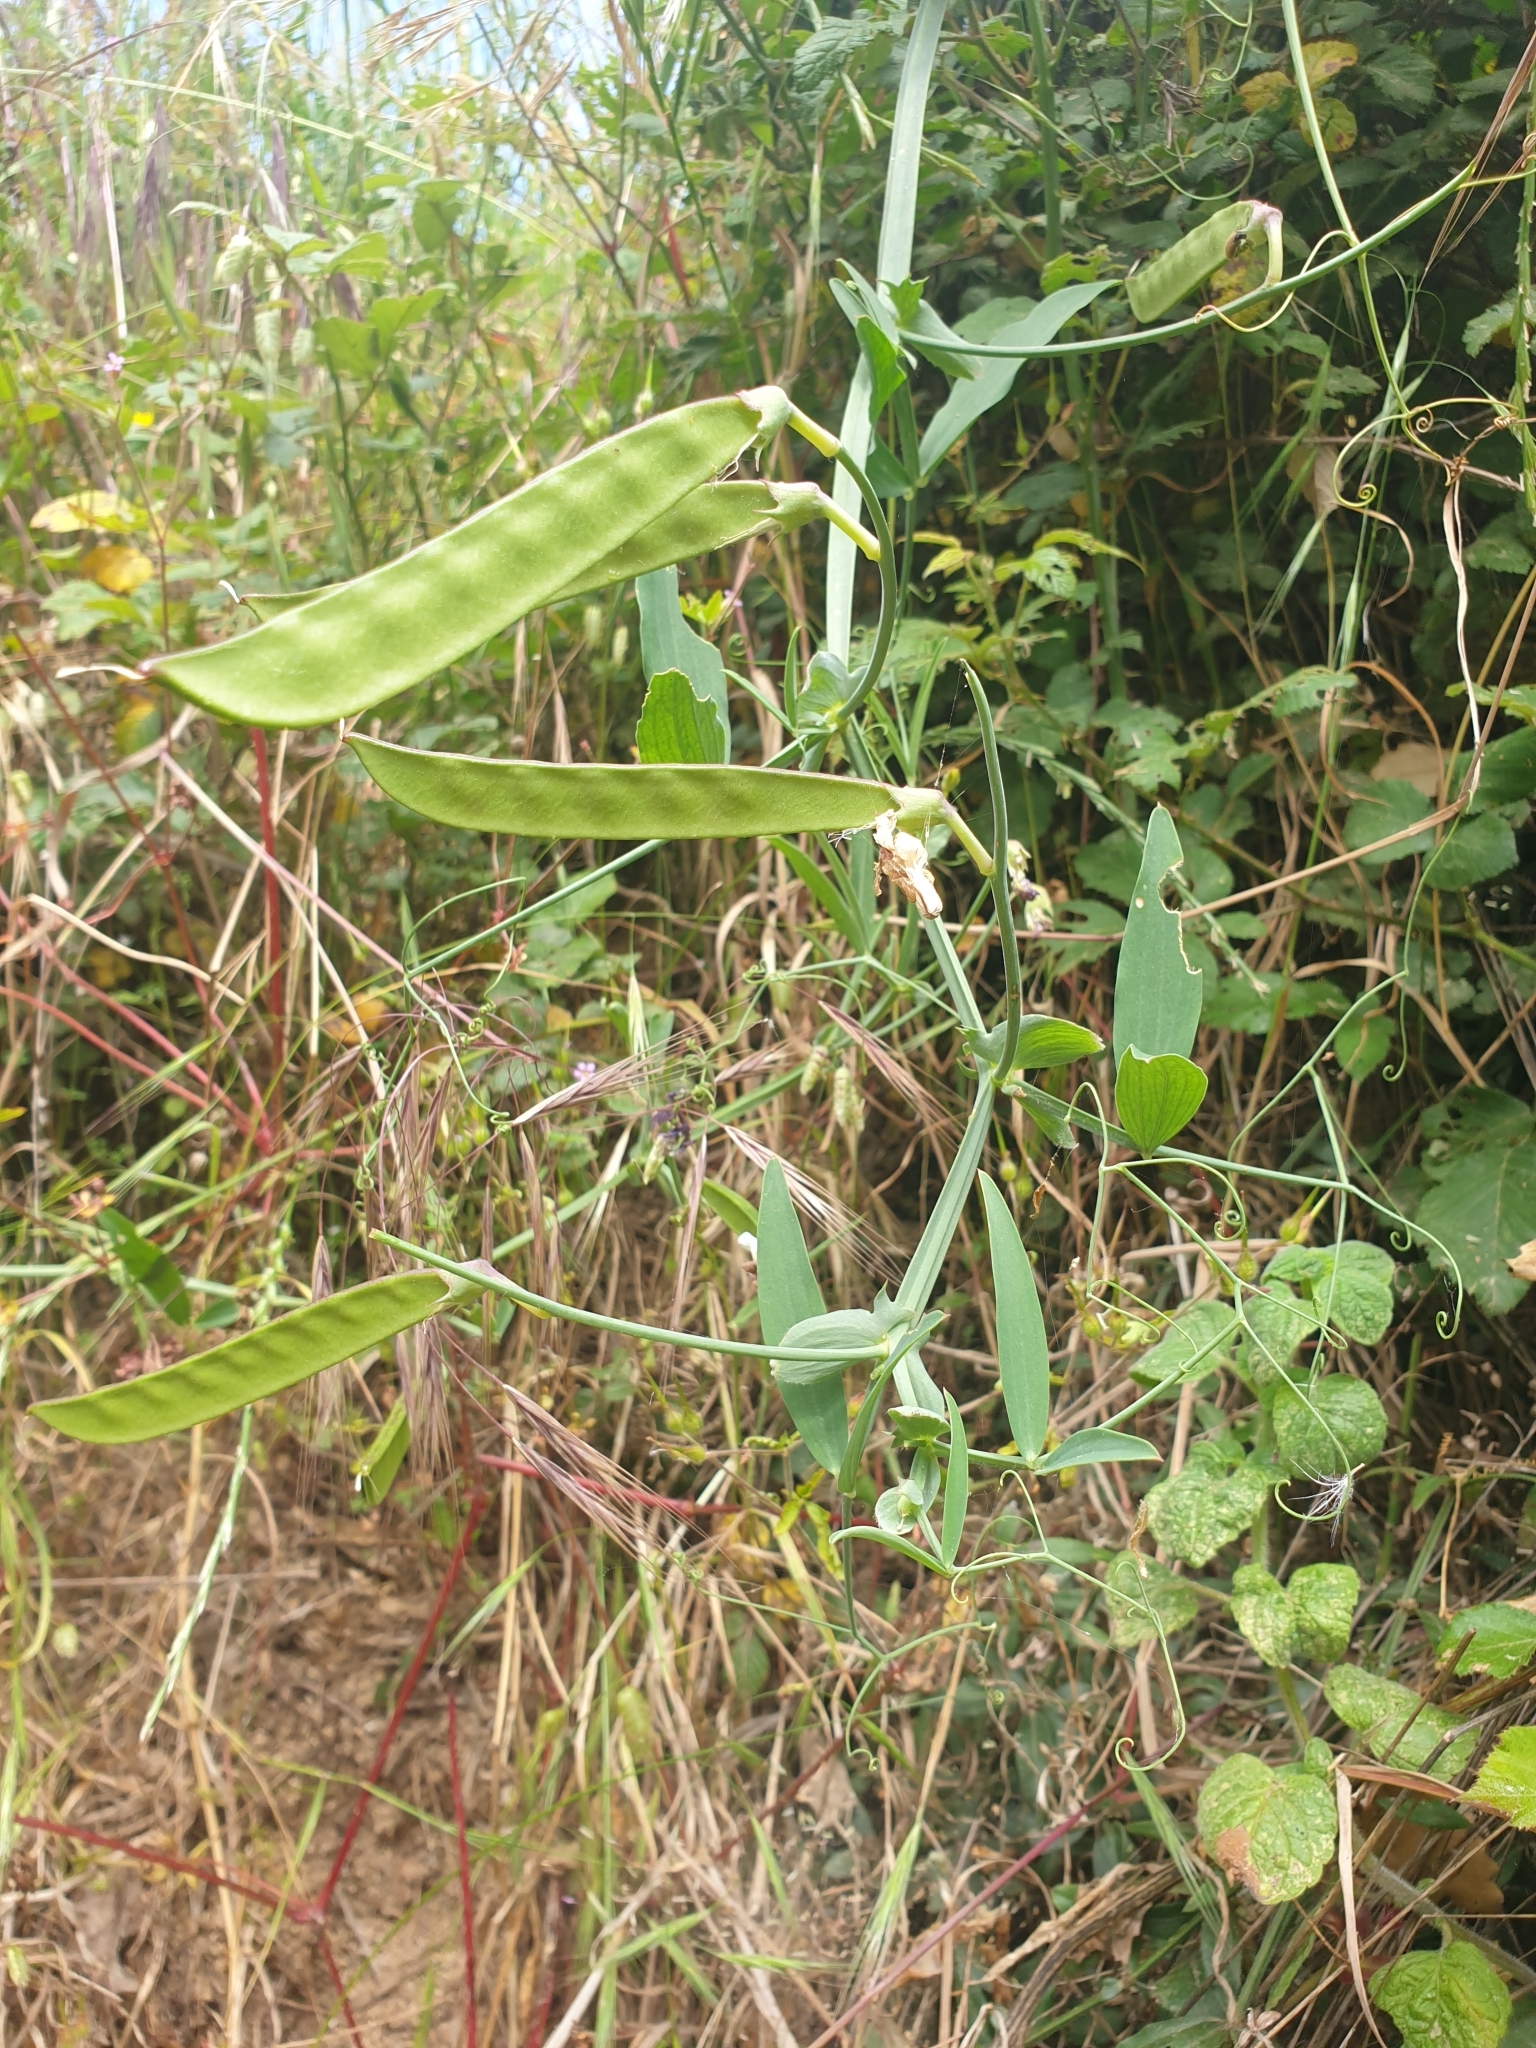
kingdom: Plantae
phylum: Tracheophyta
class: Magnoliopsida
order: Fabales
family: Fabaceae
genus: Lathyrus
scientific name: Lathyrus hirsutus
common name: Hairy vetchling
